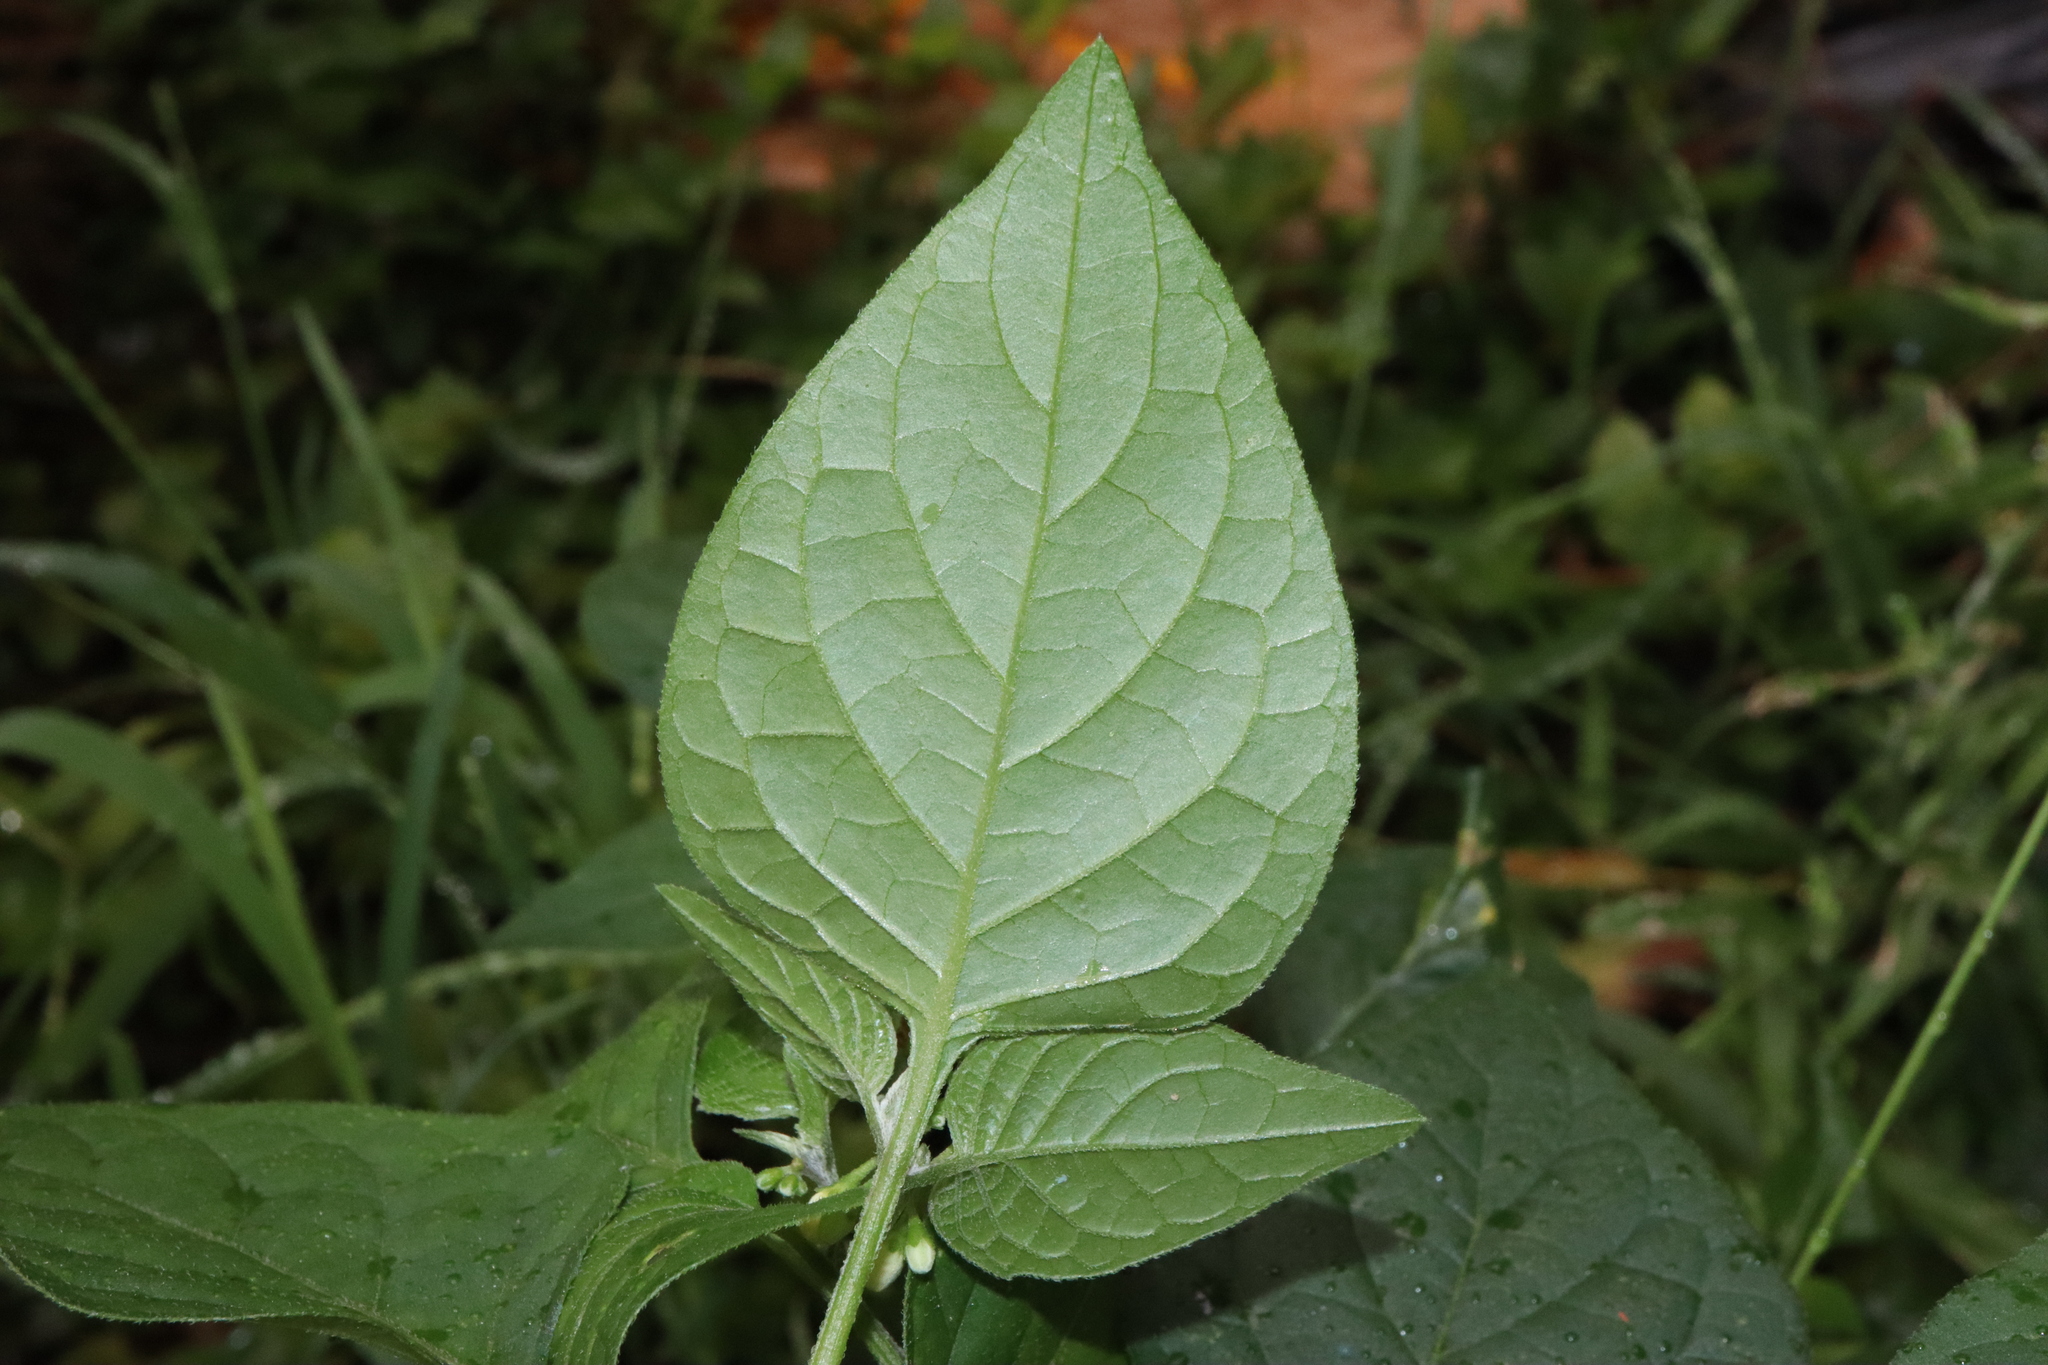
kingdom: Plantae
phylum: Tracheophyta
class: Magnoliopsida
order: Solanales
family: Solanaceae
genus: Solanum
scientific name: Solanum americanum
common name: American black nightshade
